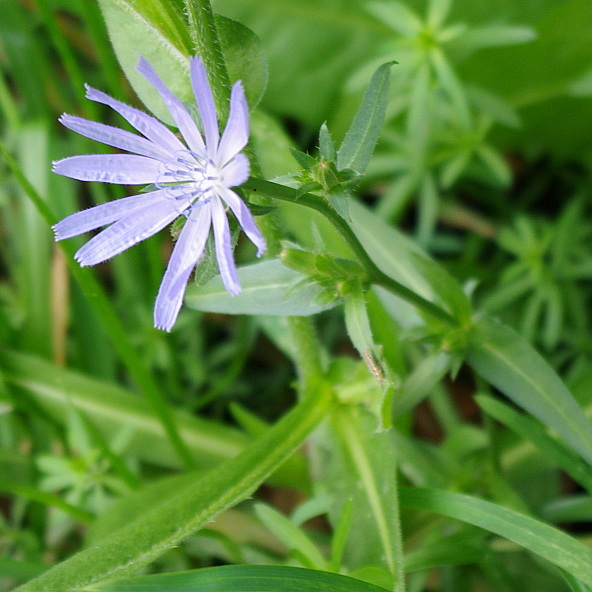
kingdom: Plantae
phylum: Tracheophyta
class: Magnoliopsida
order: Asterales
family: Asteraceae
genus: Cichorium
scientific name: Cichorium intybus
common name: Chicory
